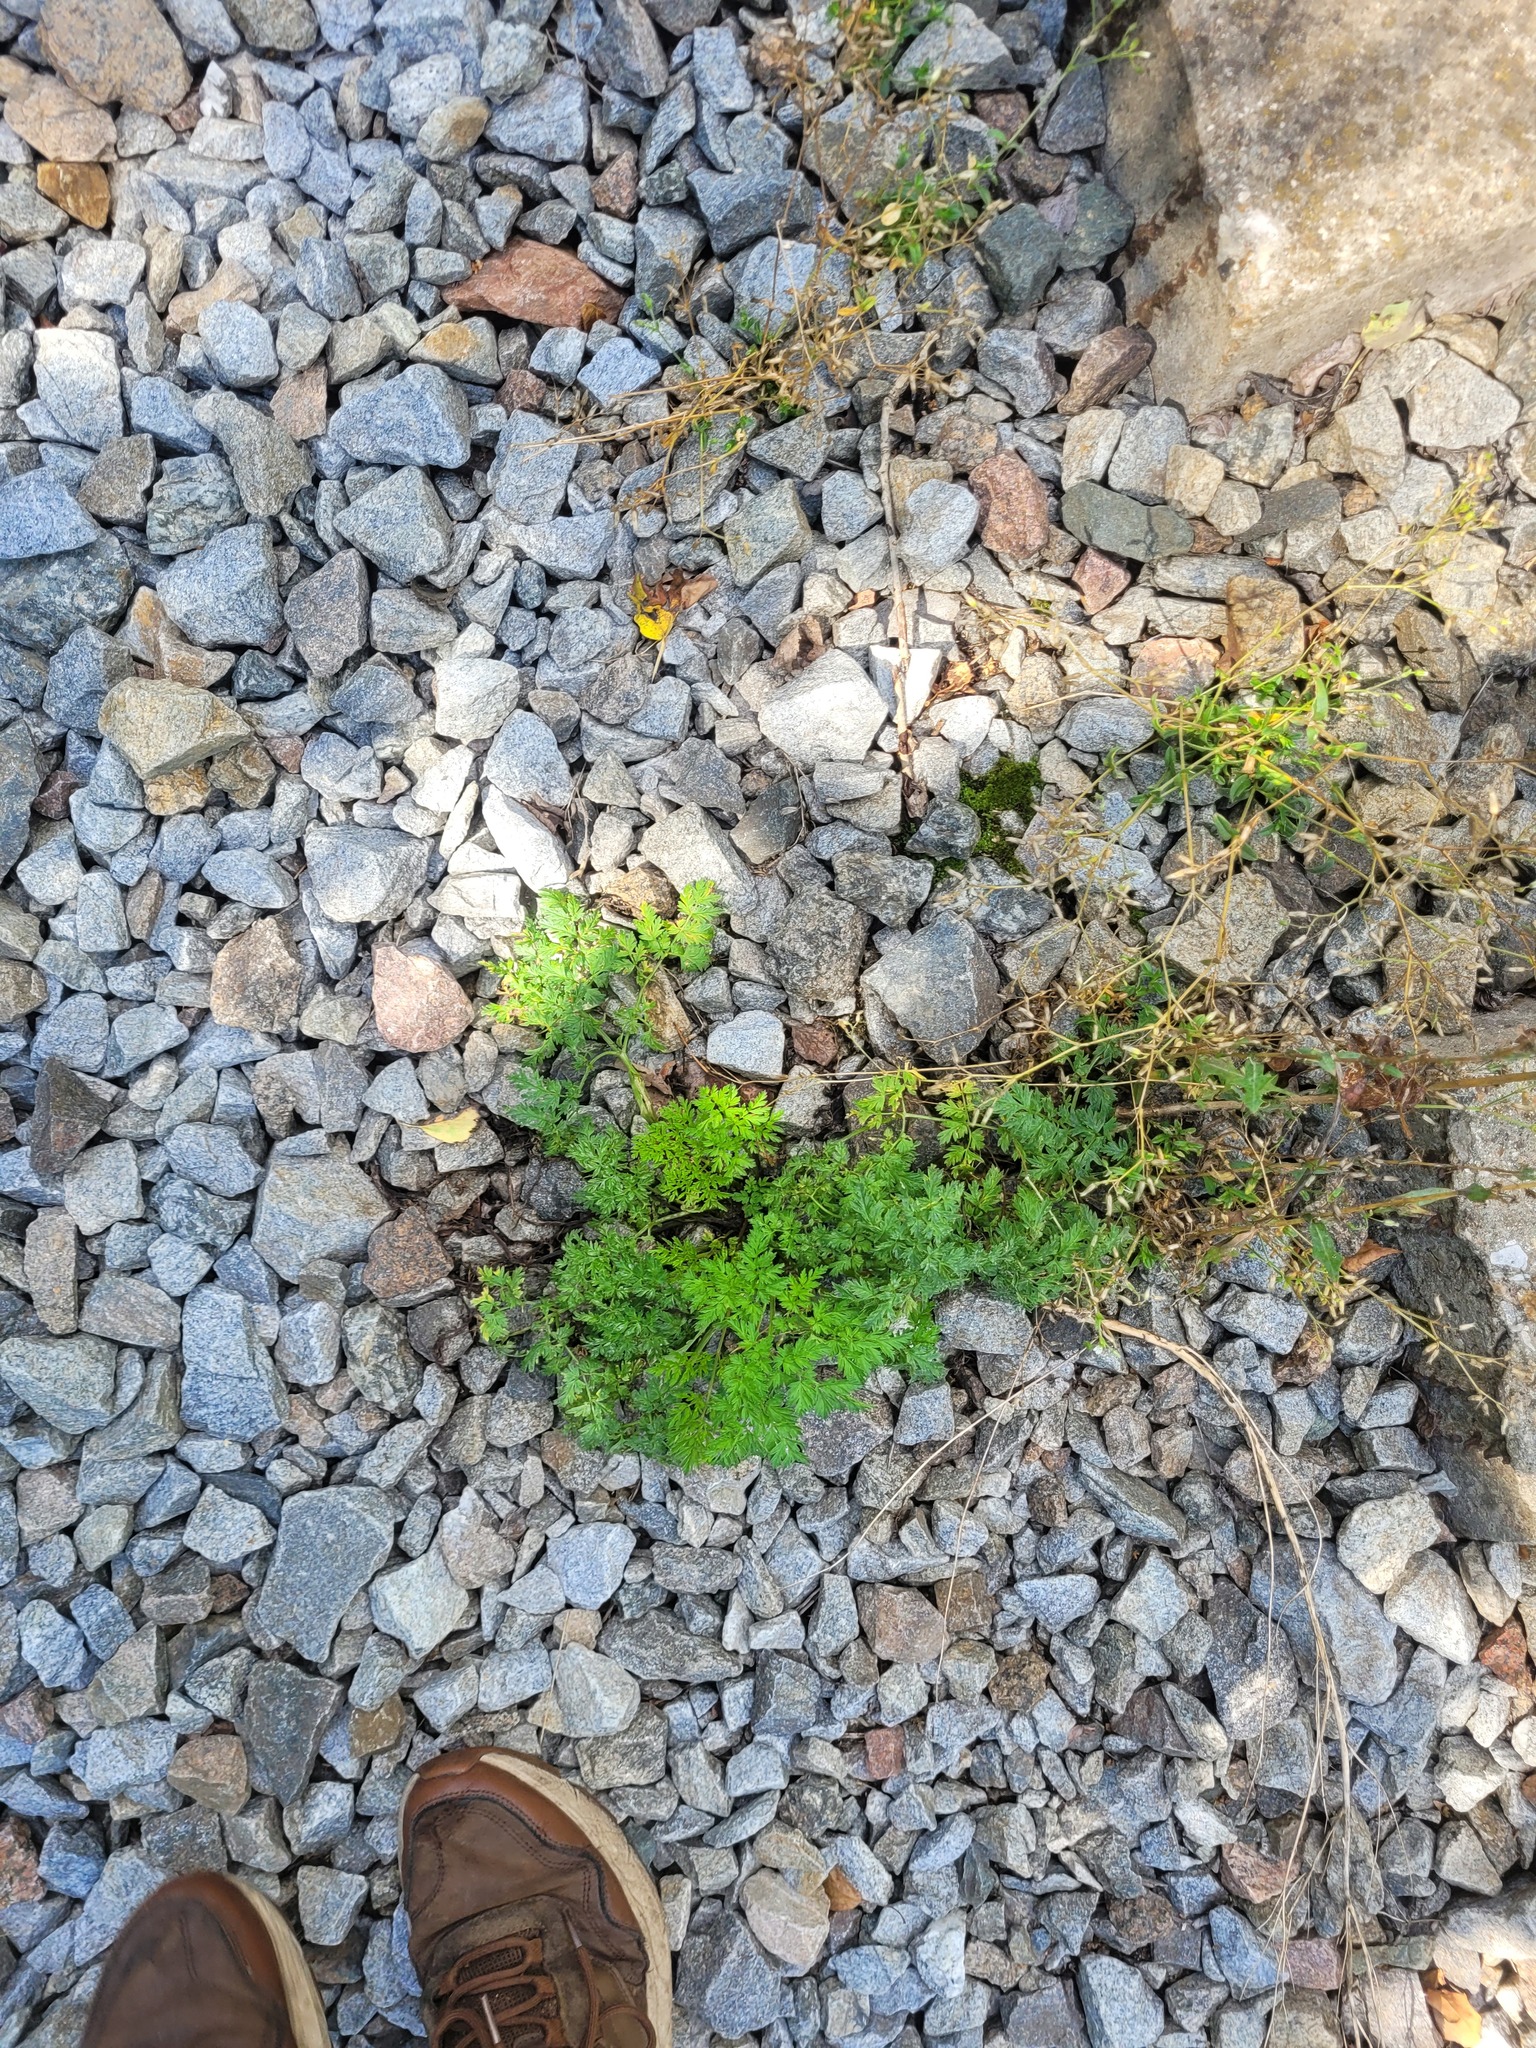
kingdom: Plantae
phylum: Tracheophyta
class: Magnoliopsida
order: Apiales
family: Apiaceae
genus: Anthriscus
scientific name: Anthriscus sylvestris
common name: Cow parsley
